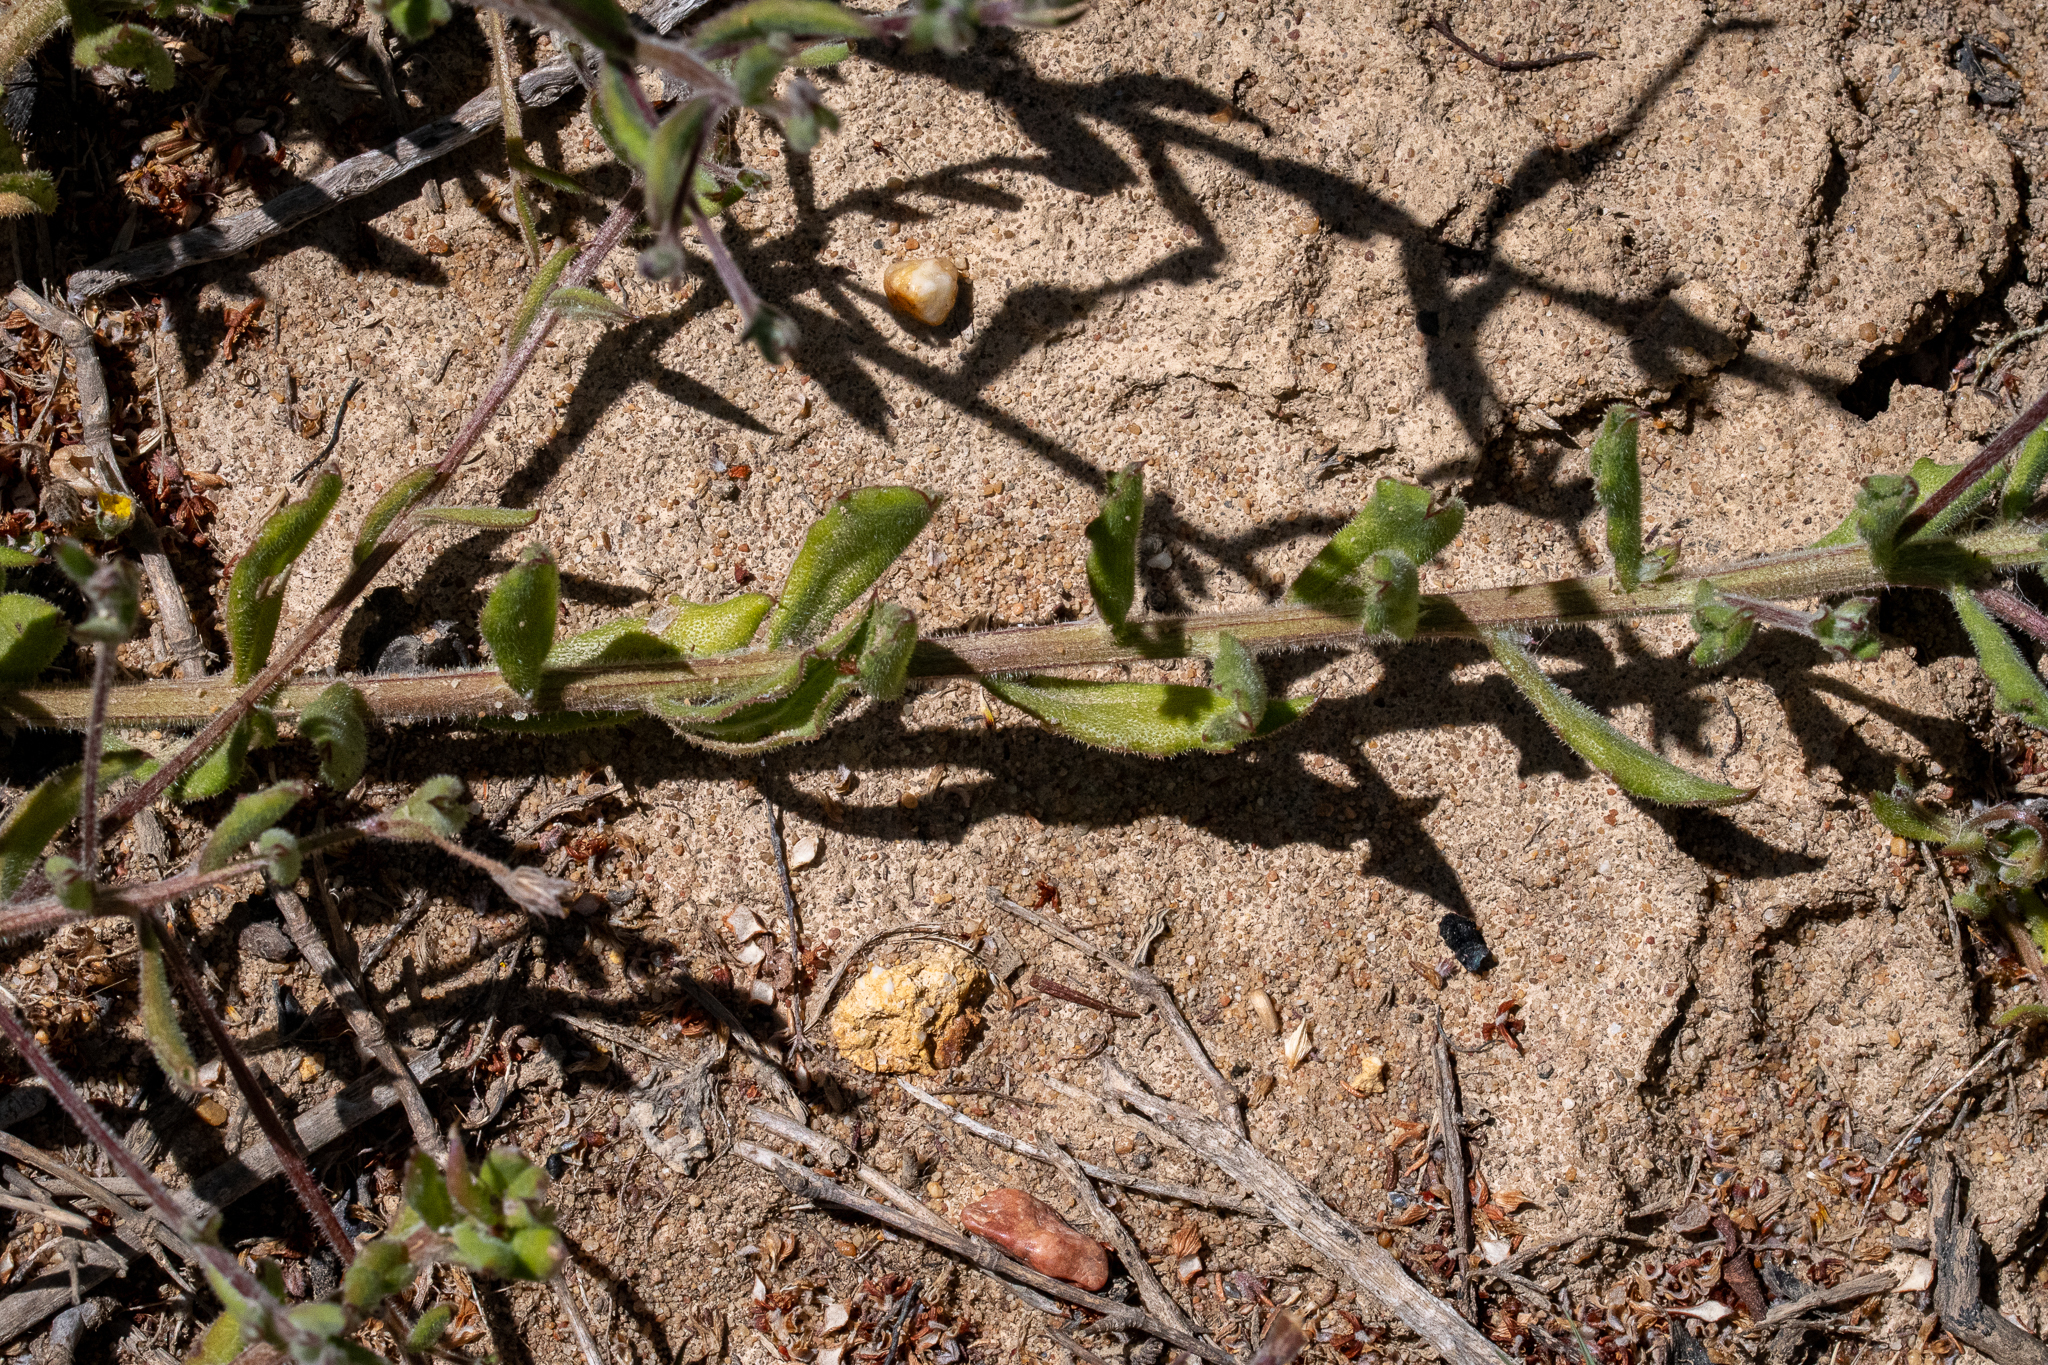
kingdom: Plantae
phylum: Tracheophyta
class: Magnoliopsida
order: Asterales
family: Asteraceae
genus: Osteospermum
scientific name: Osteospermum ciliatum
